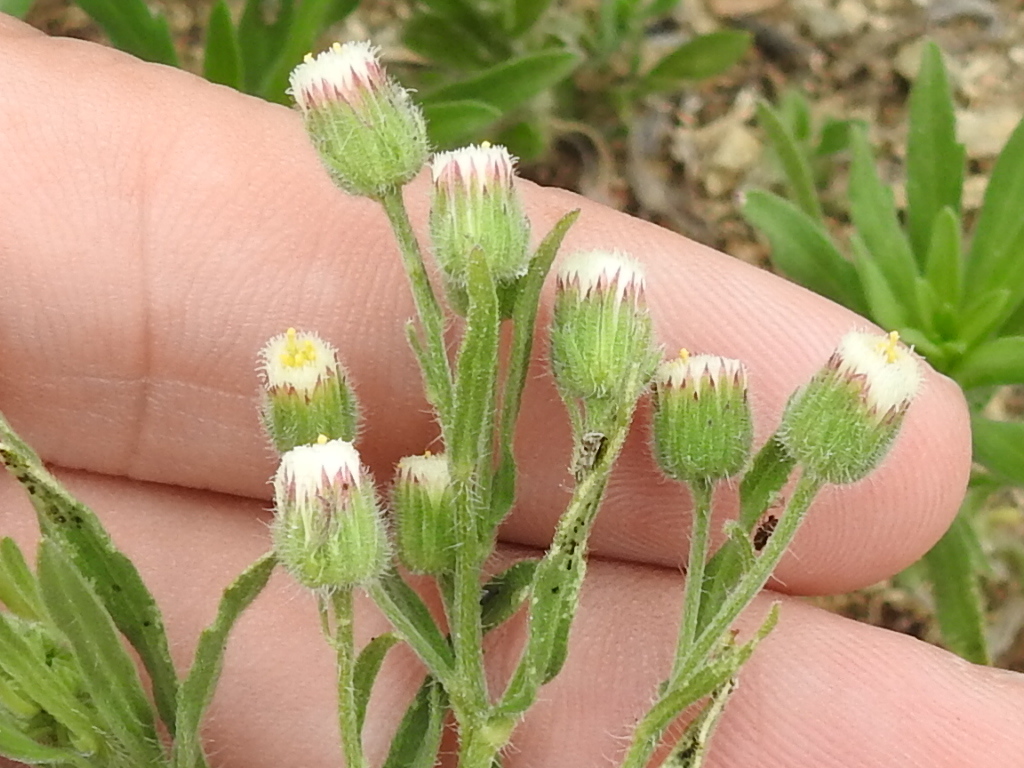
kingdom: Plantae
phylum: Tracheophyta
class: Magnoliopsida
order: Asterales
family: Asteraceae
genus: Erigeron
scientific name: Erigeron bonariensis
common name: Argentine fleabane
